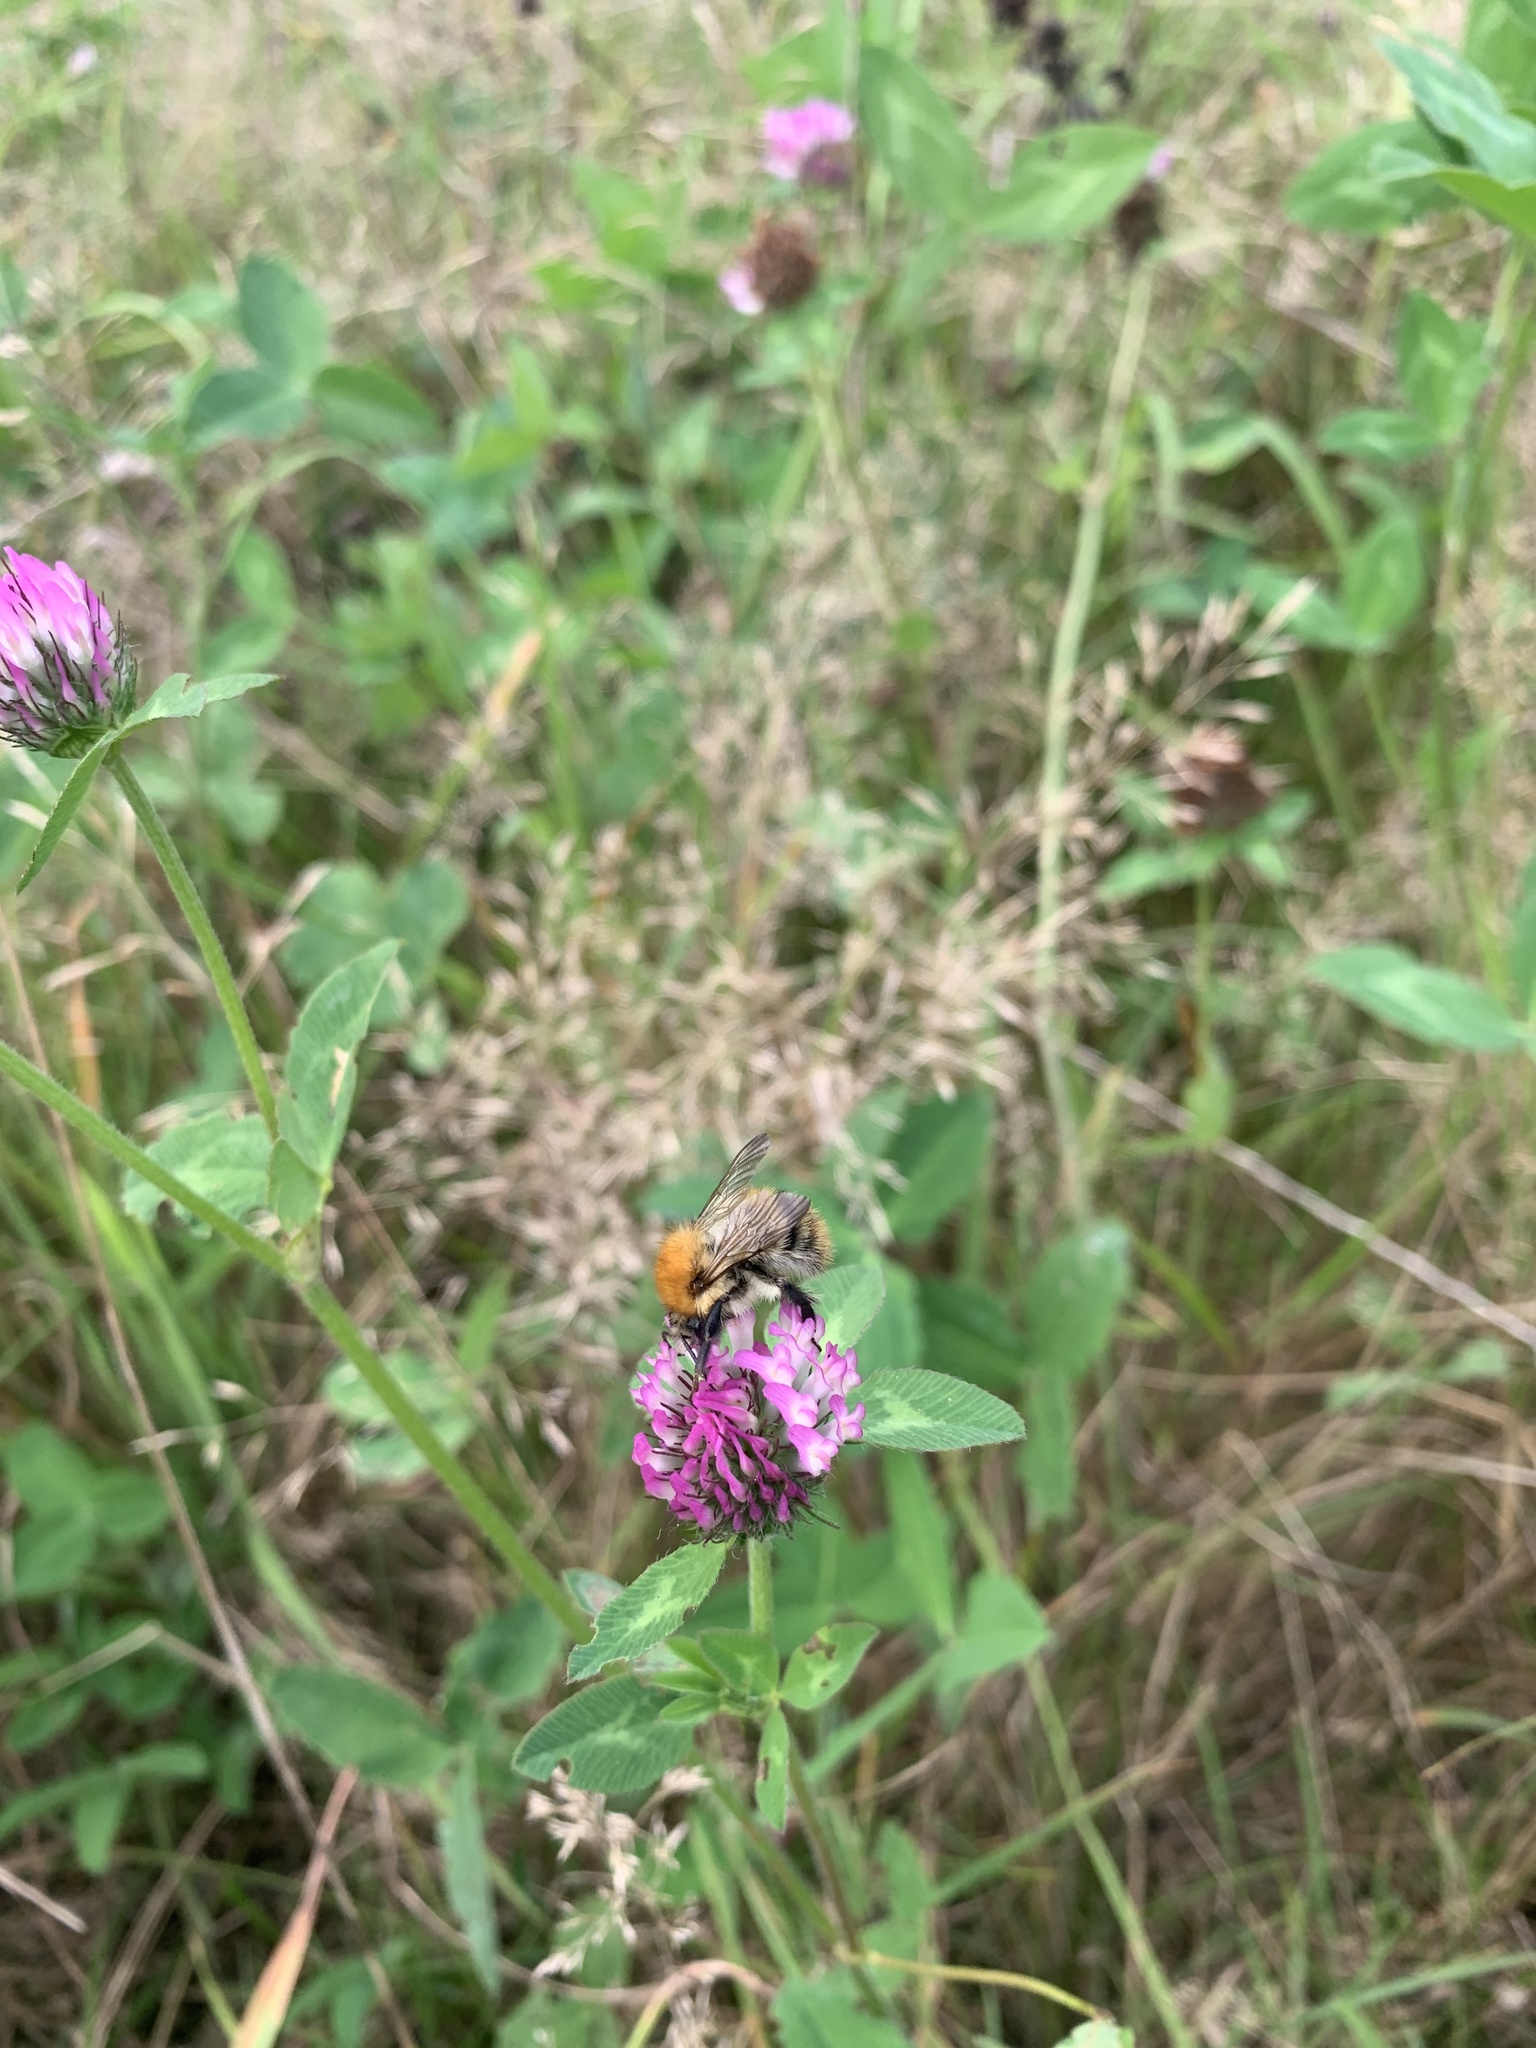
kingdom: Animalia
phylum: Arthropoda
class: Insecta
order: Hymenoptera
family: Apidae
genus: Bombus
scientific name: Bombus pascuorum
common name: Common carder bee
